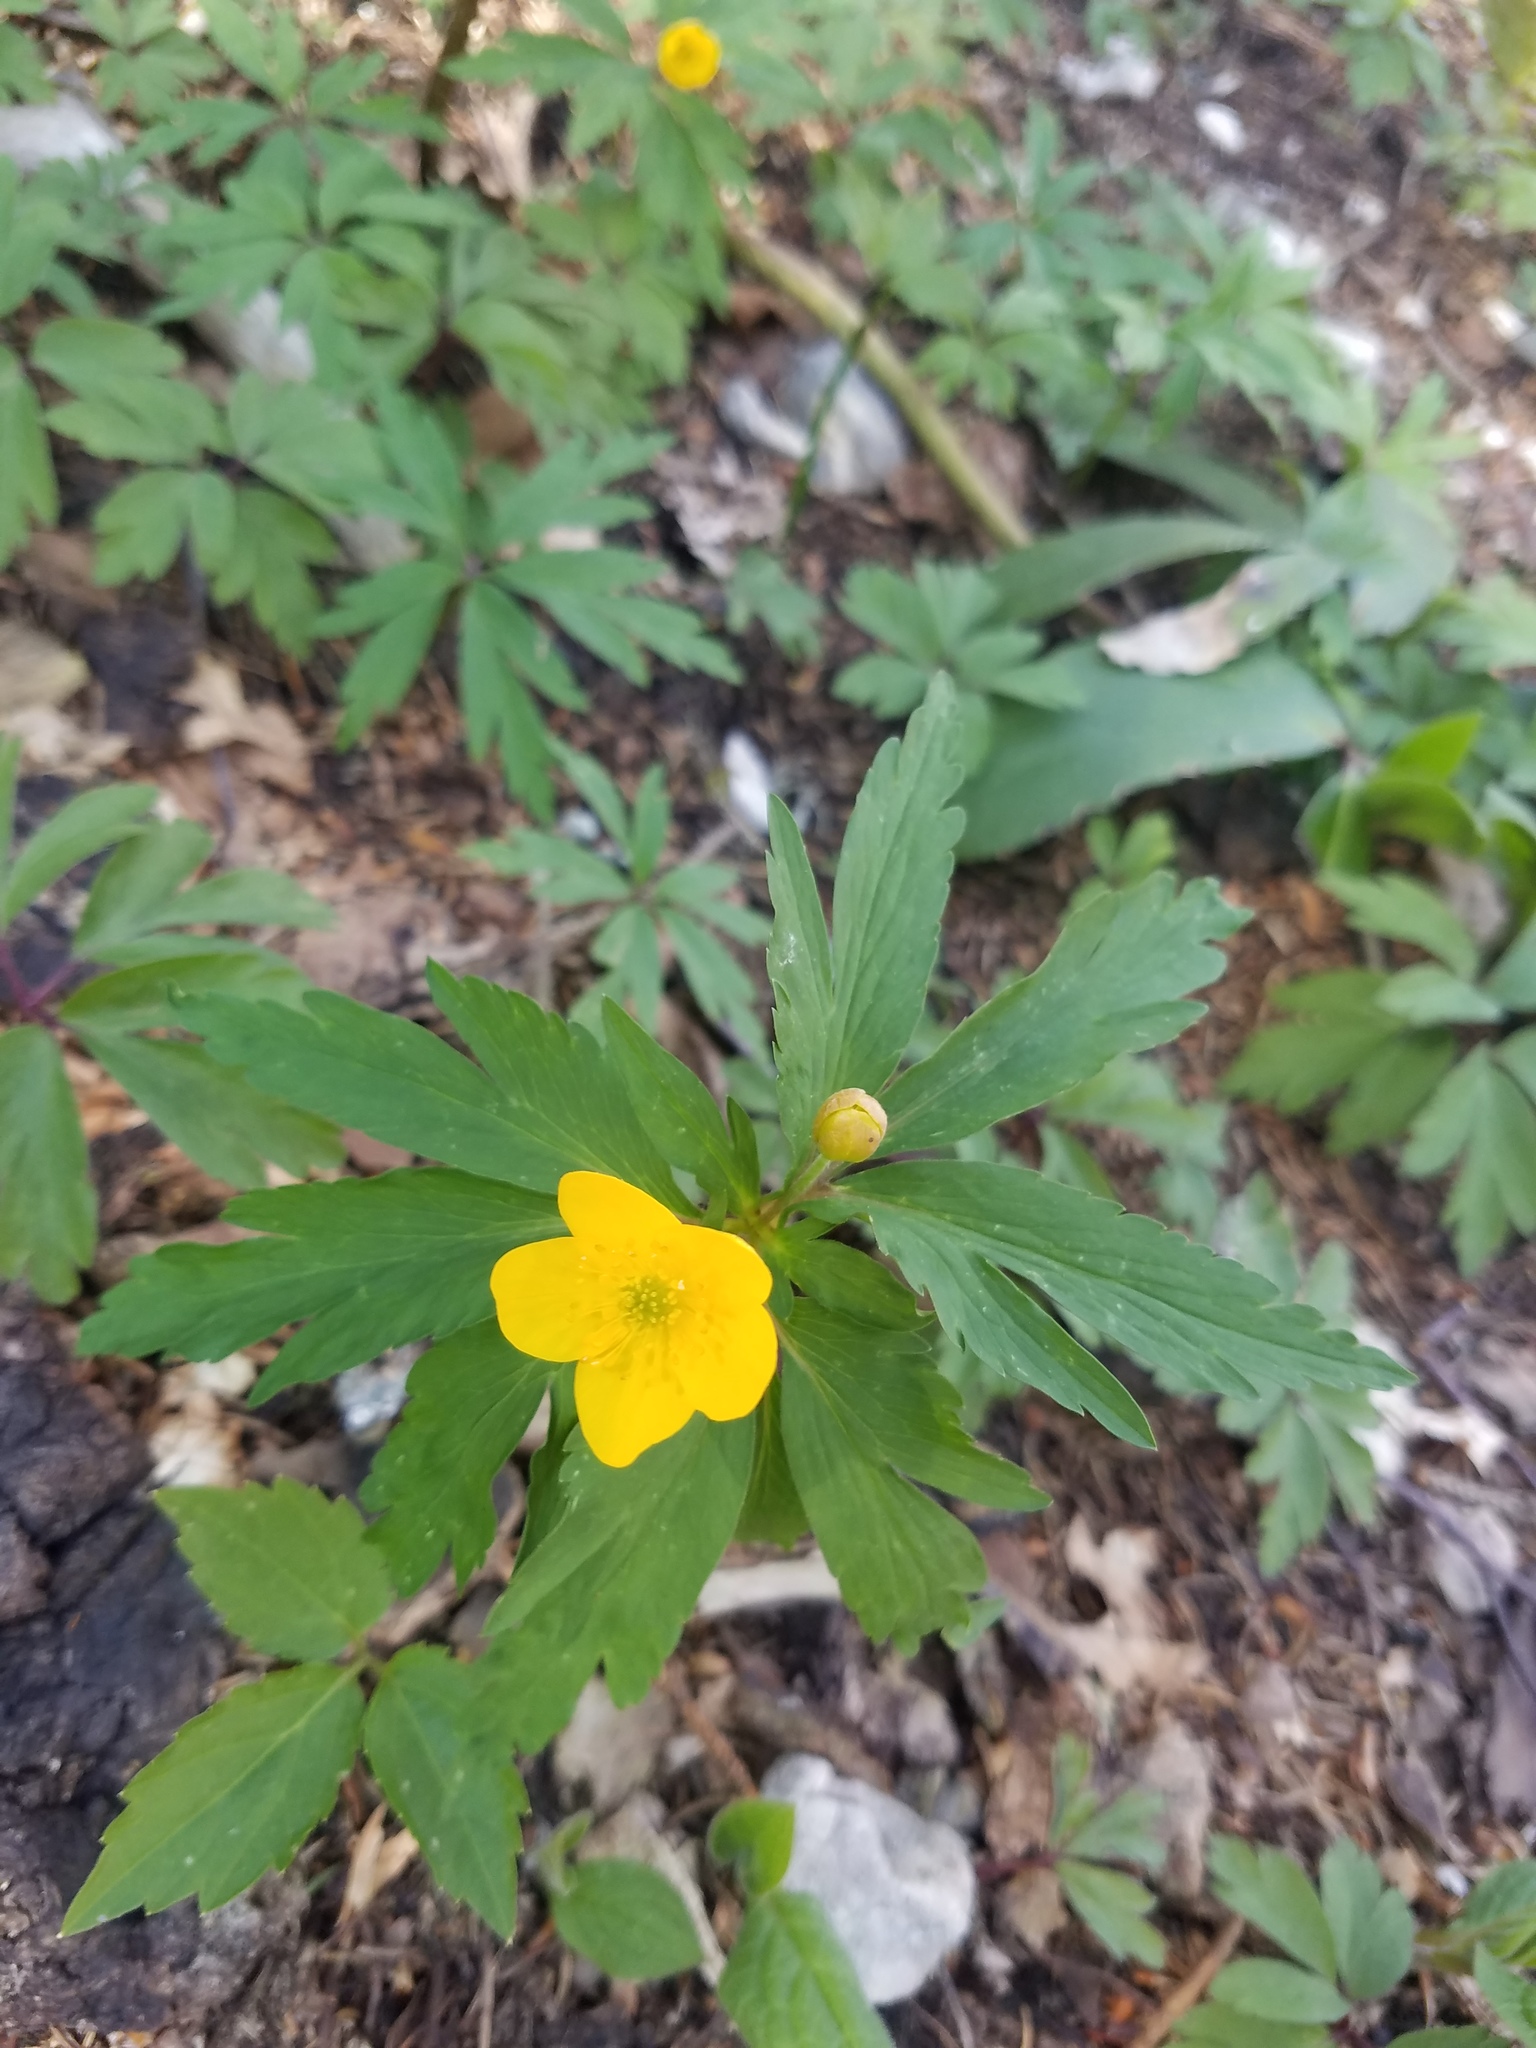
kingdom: Plantae
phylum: Tracheophyta
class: Magnoliopsida
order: Ranunculales
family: Ranunculaceae
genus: Anemone
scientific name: Anemone ranunculoides
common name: Yellow anemone
